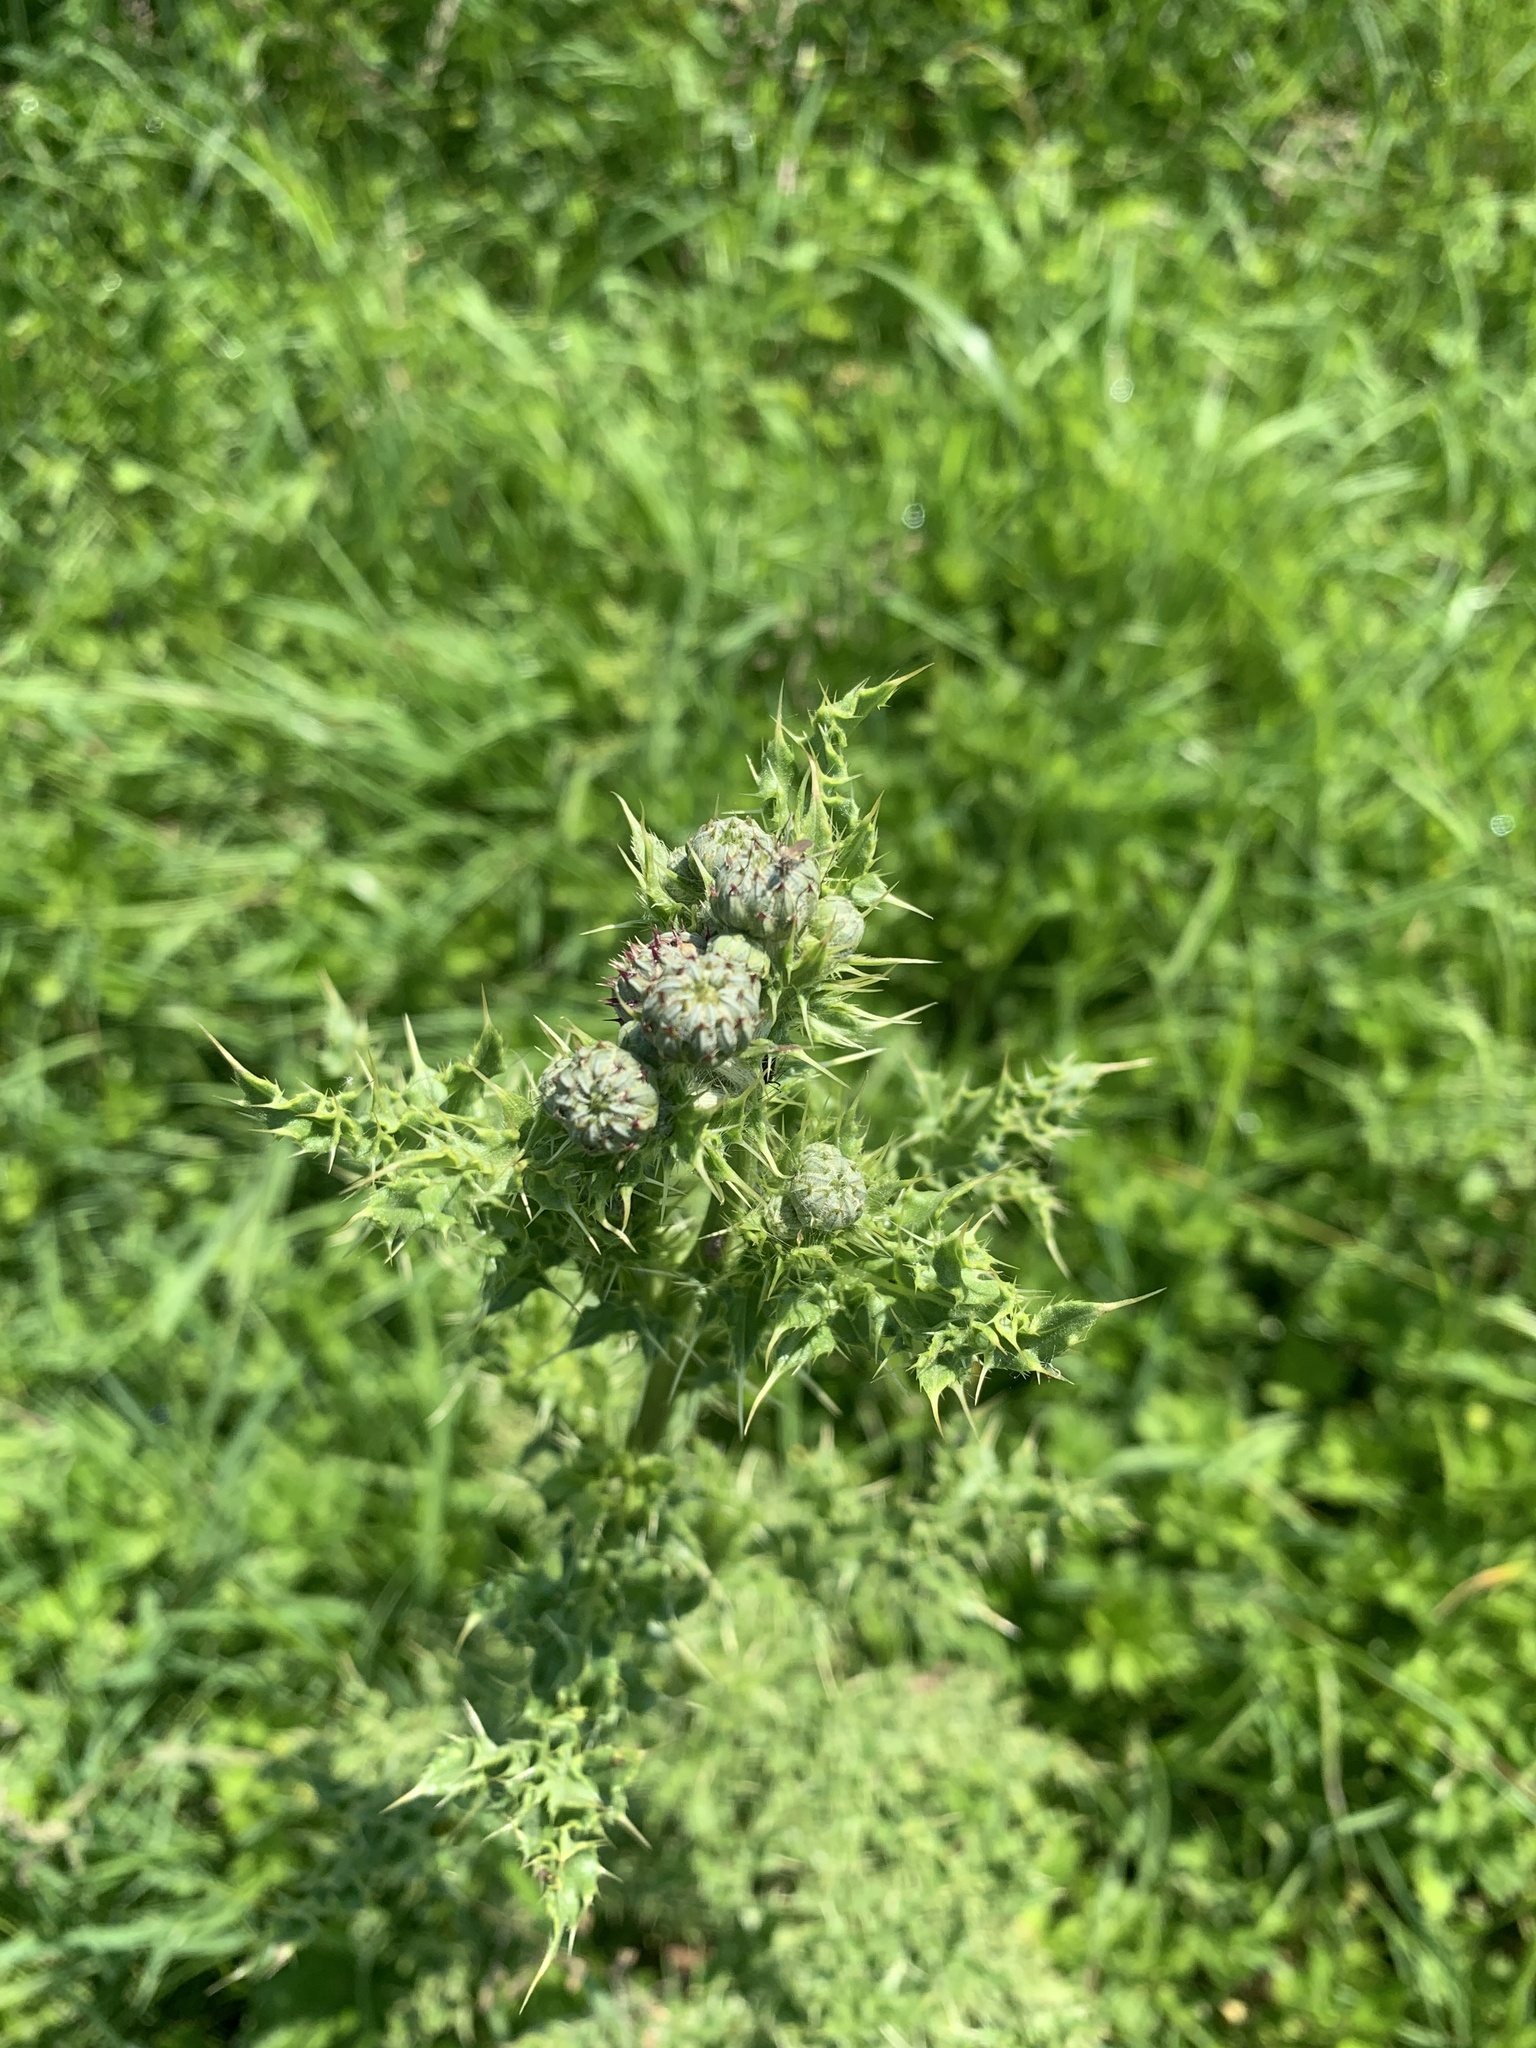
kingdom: Plantae
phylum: Tracheophyta
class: Magnoliopsida
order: Asterales
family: Asteraceae
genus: Cirsium
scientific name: Cirsium arvense
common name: Creeping thistle
